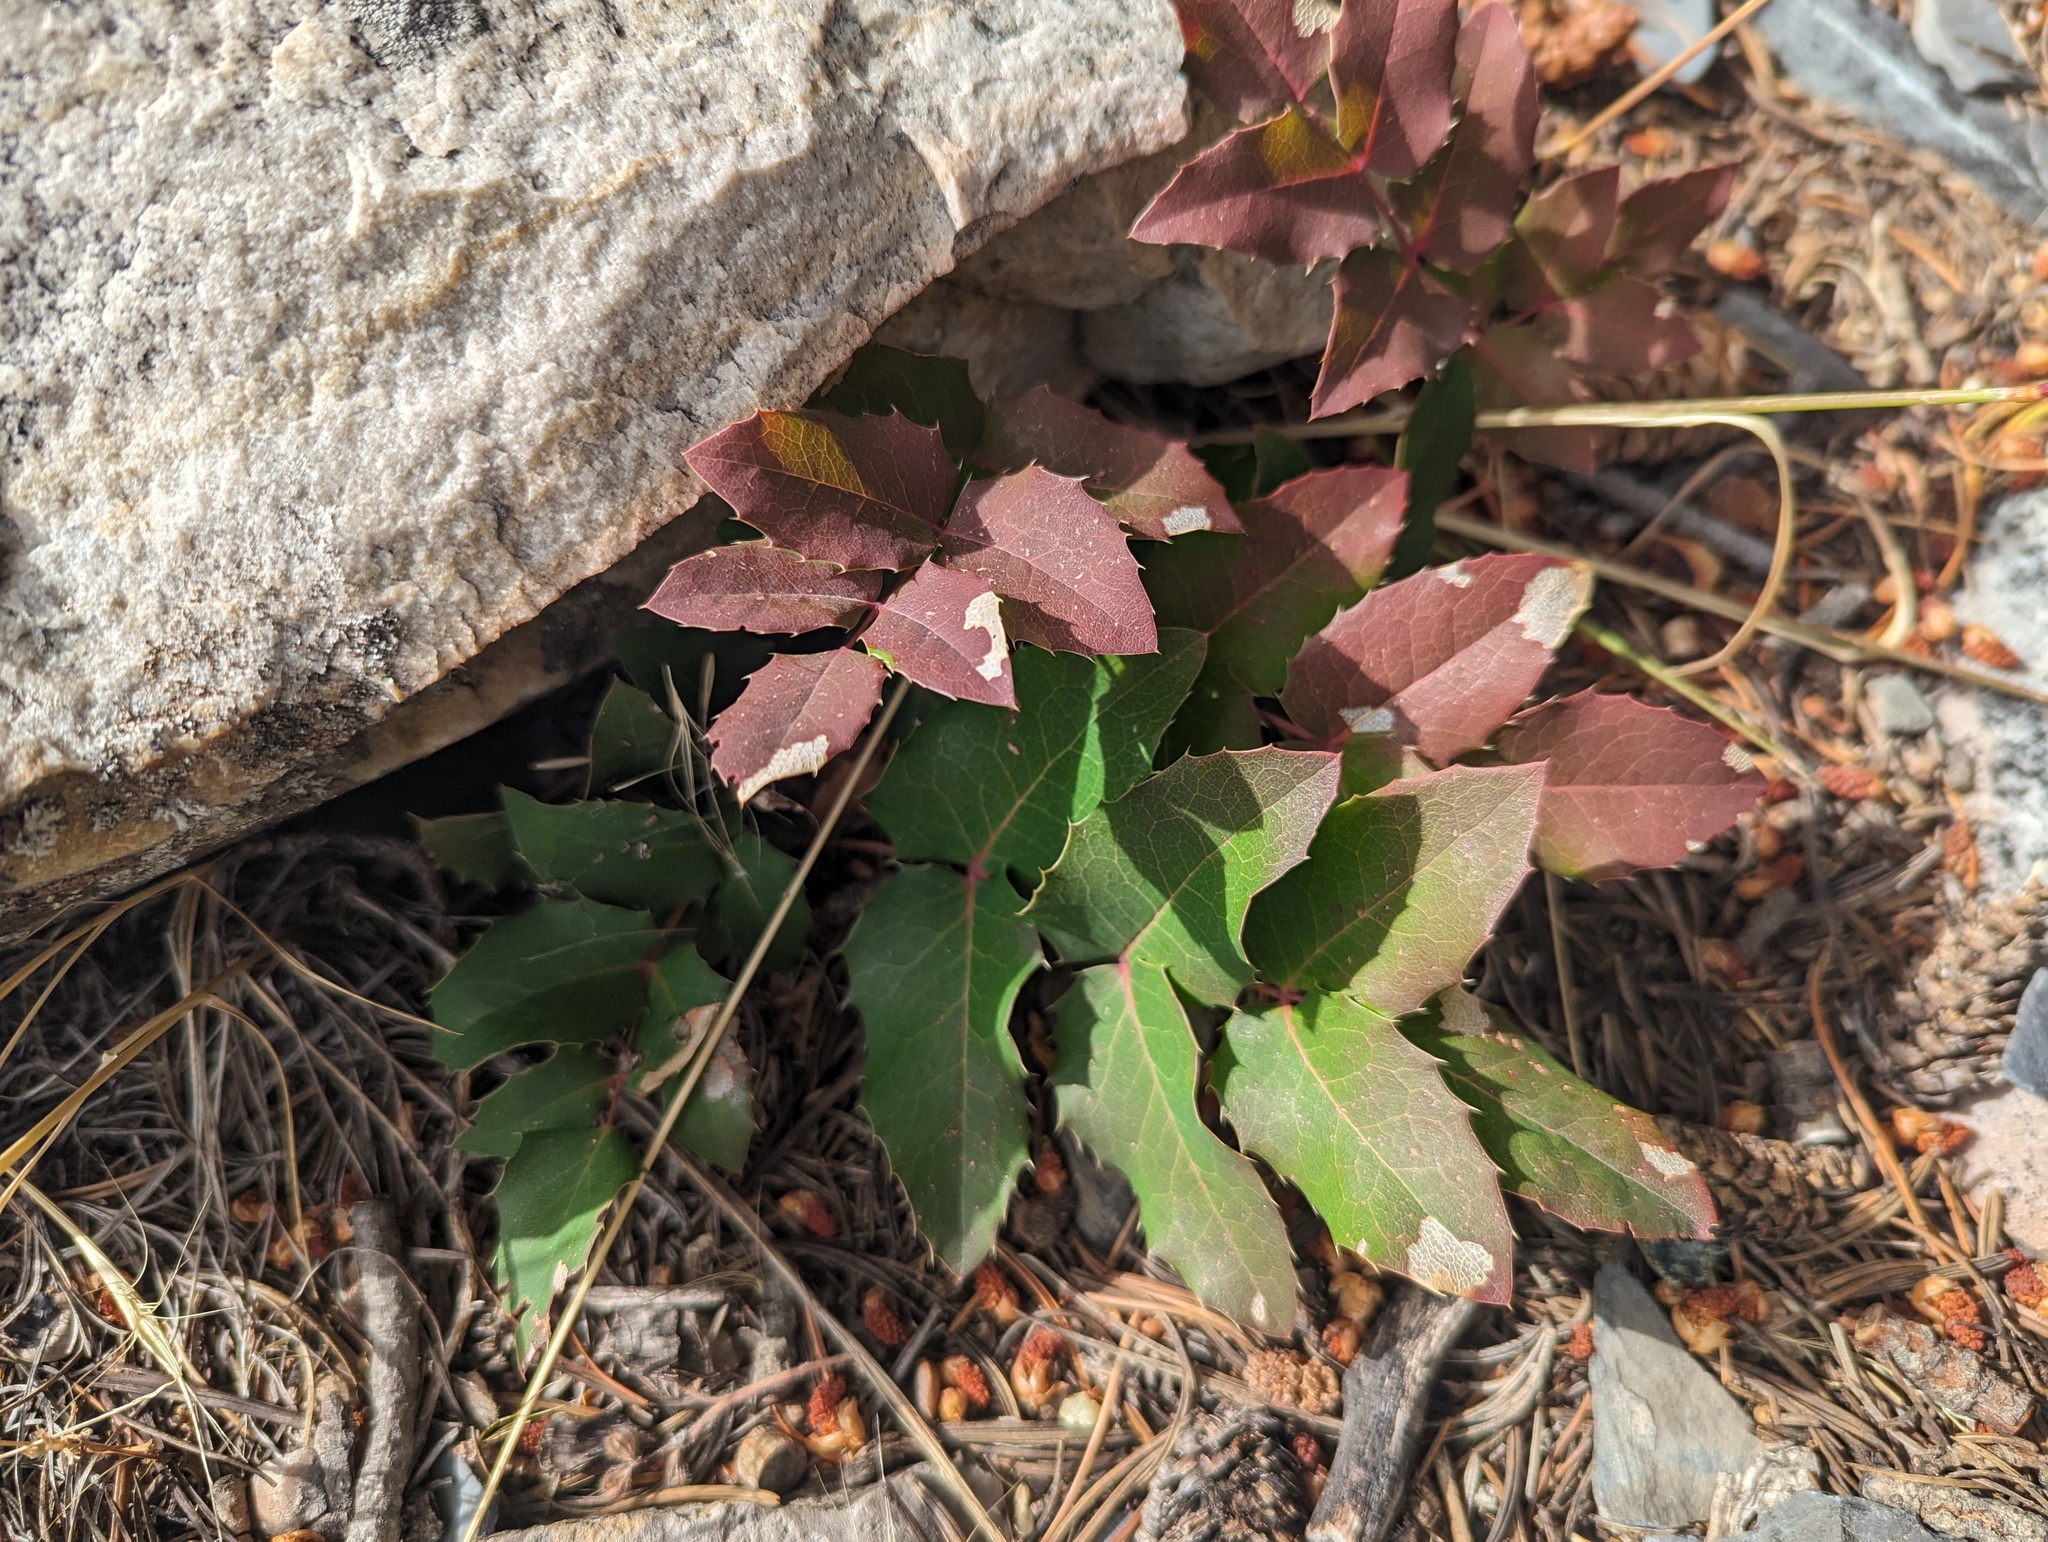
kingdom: Plantae
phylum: Tracheophyta
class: Magnoliopsida
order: Ranunculales
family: Berberidaceae
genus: Mahonia
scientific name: Mahonia repens
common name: Creeping oregon-grape
